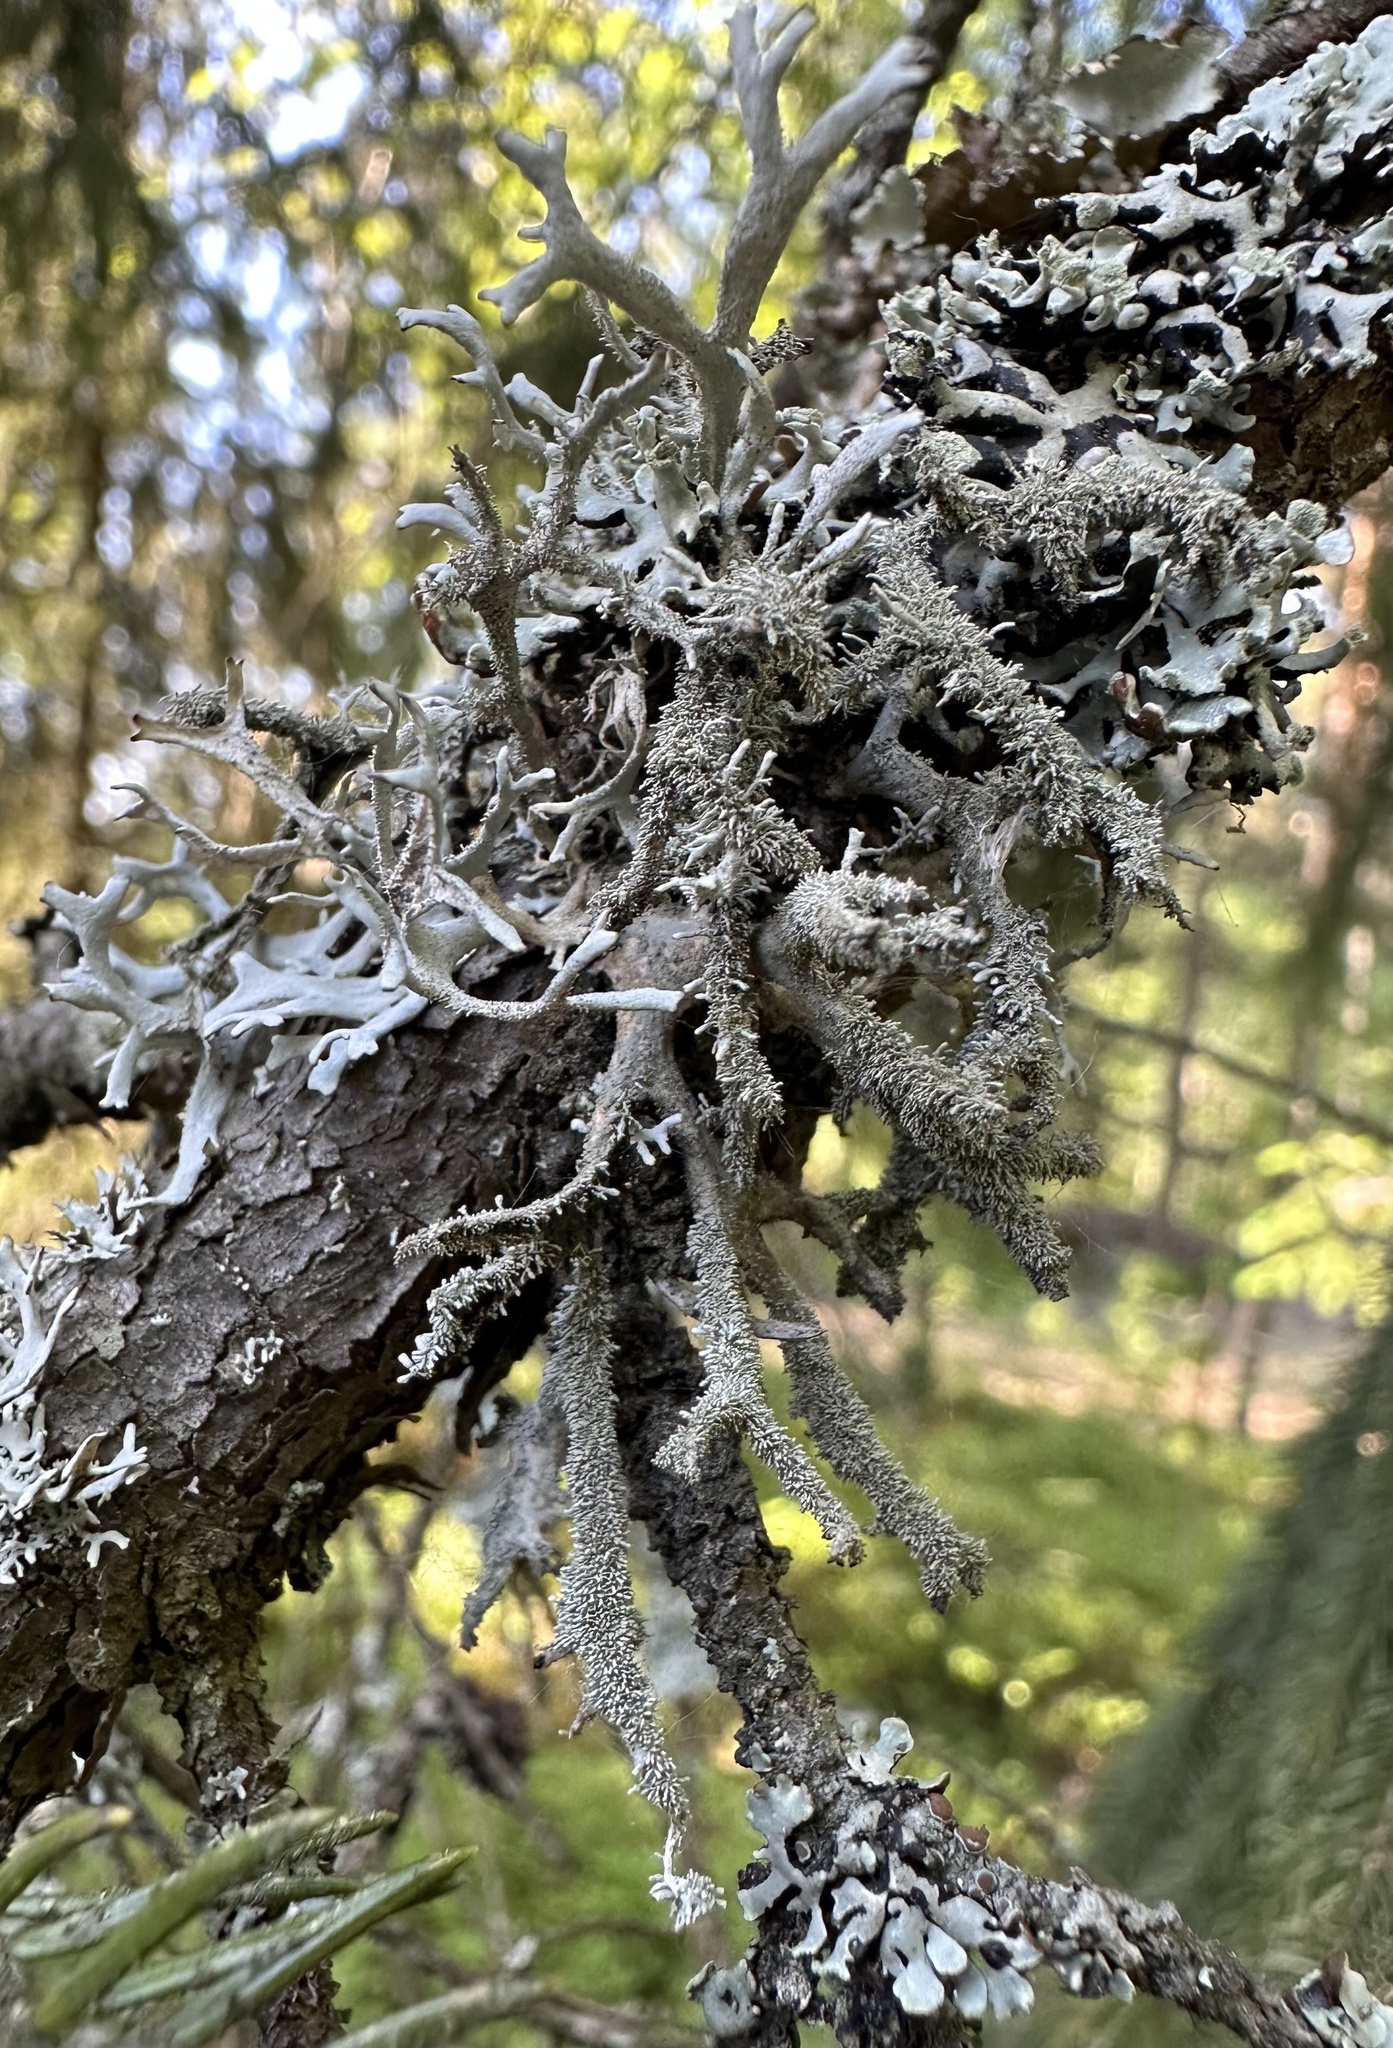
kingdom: Fungi
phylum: Ascomycota
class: Lecanoromycetes
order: Lecanorales
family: Parmeliaceae
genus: Pseudevernia
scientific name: Pseudevernia furfuracea
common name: Tree moss
